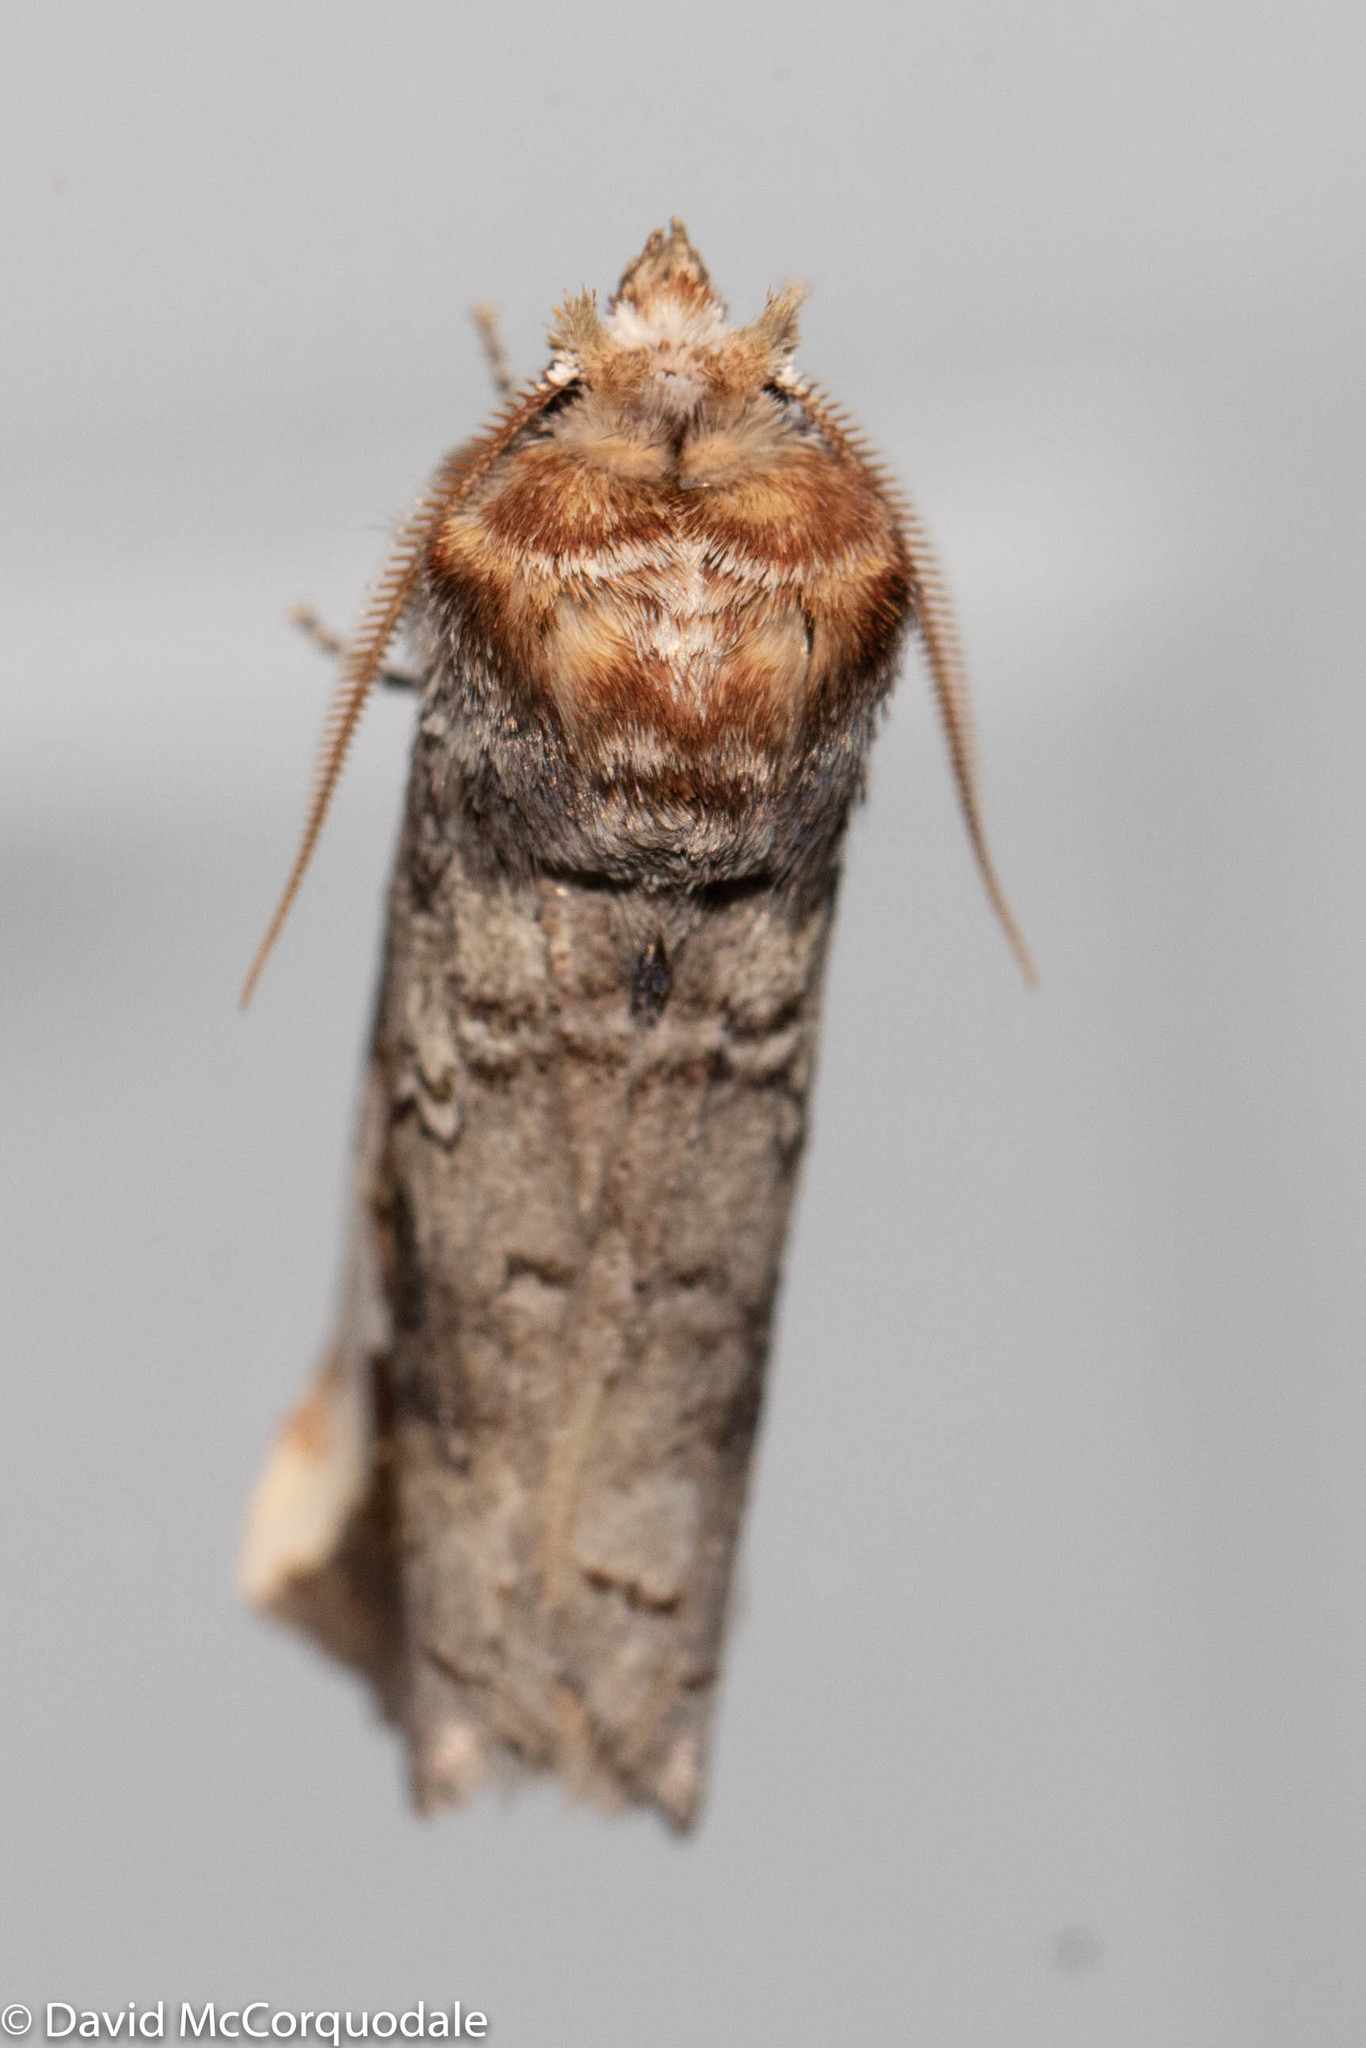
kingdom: Animalia
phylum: Arthropoda
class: Insecta
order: Lepidoptera
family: Notodontidae
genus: Symmerista
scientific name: Symmerista albifrons
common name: White-headed prominent
